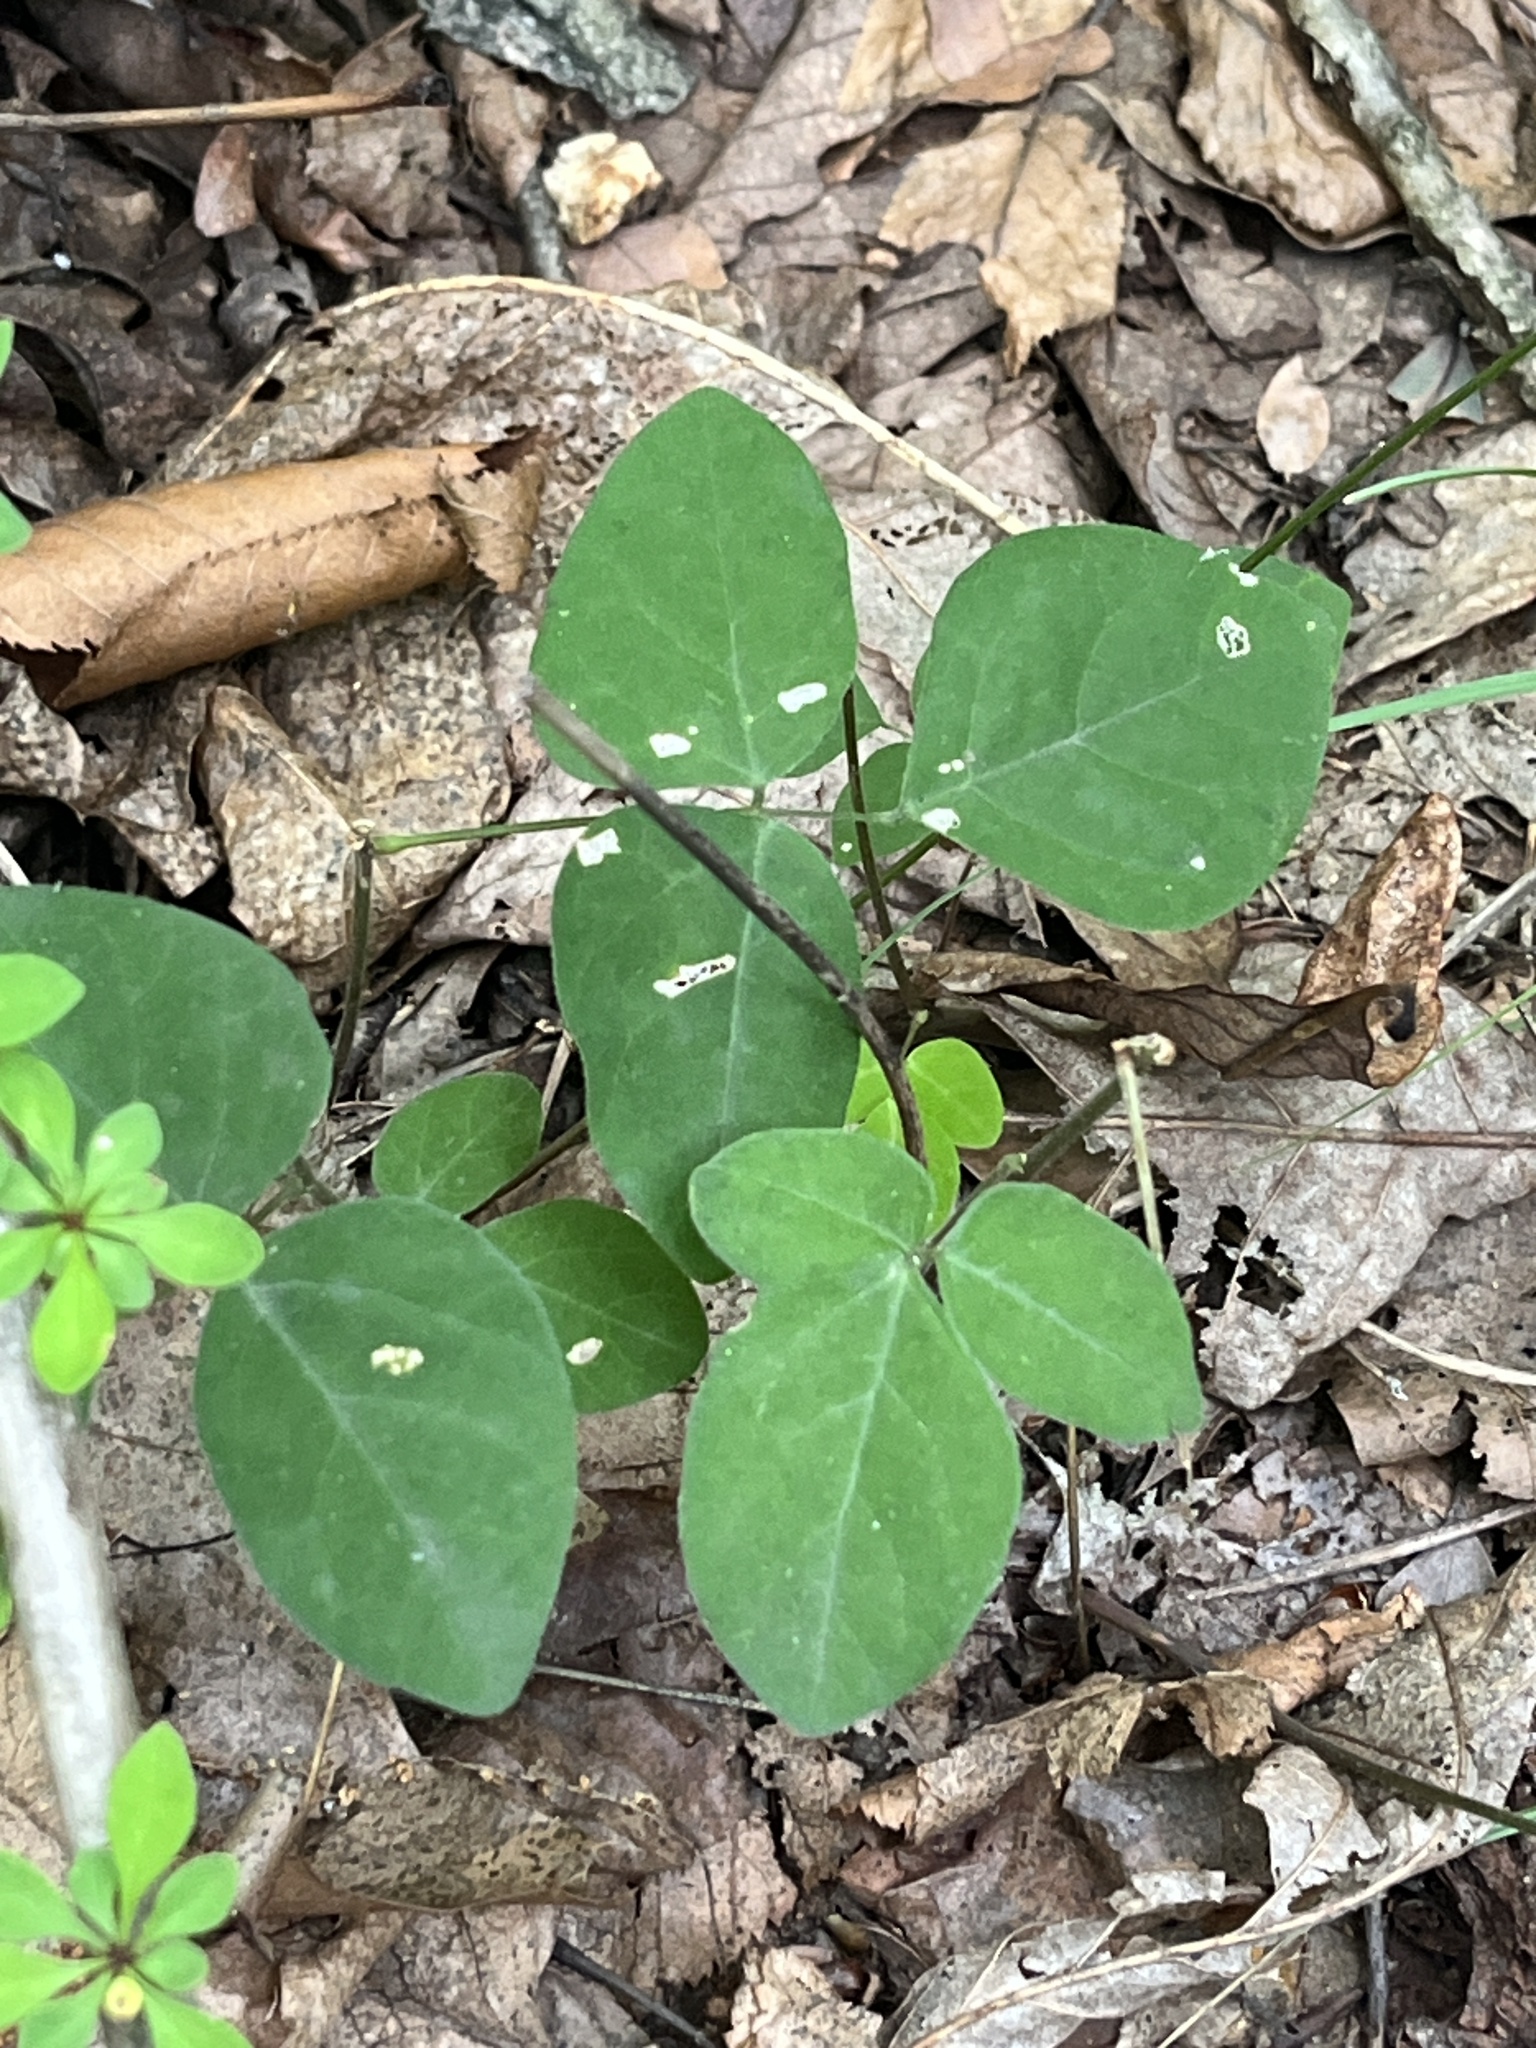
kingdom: Plantae
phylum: Tracheophyta
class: Magnoliopsida
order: Fabales
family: Fabaceae
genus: Hylodesmum
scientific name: Hylodesmum nudiflorum
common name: Bare-stemmed tick-trefoil
